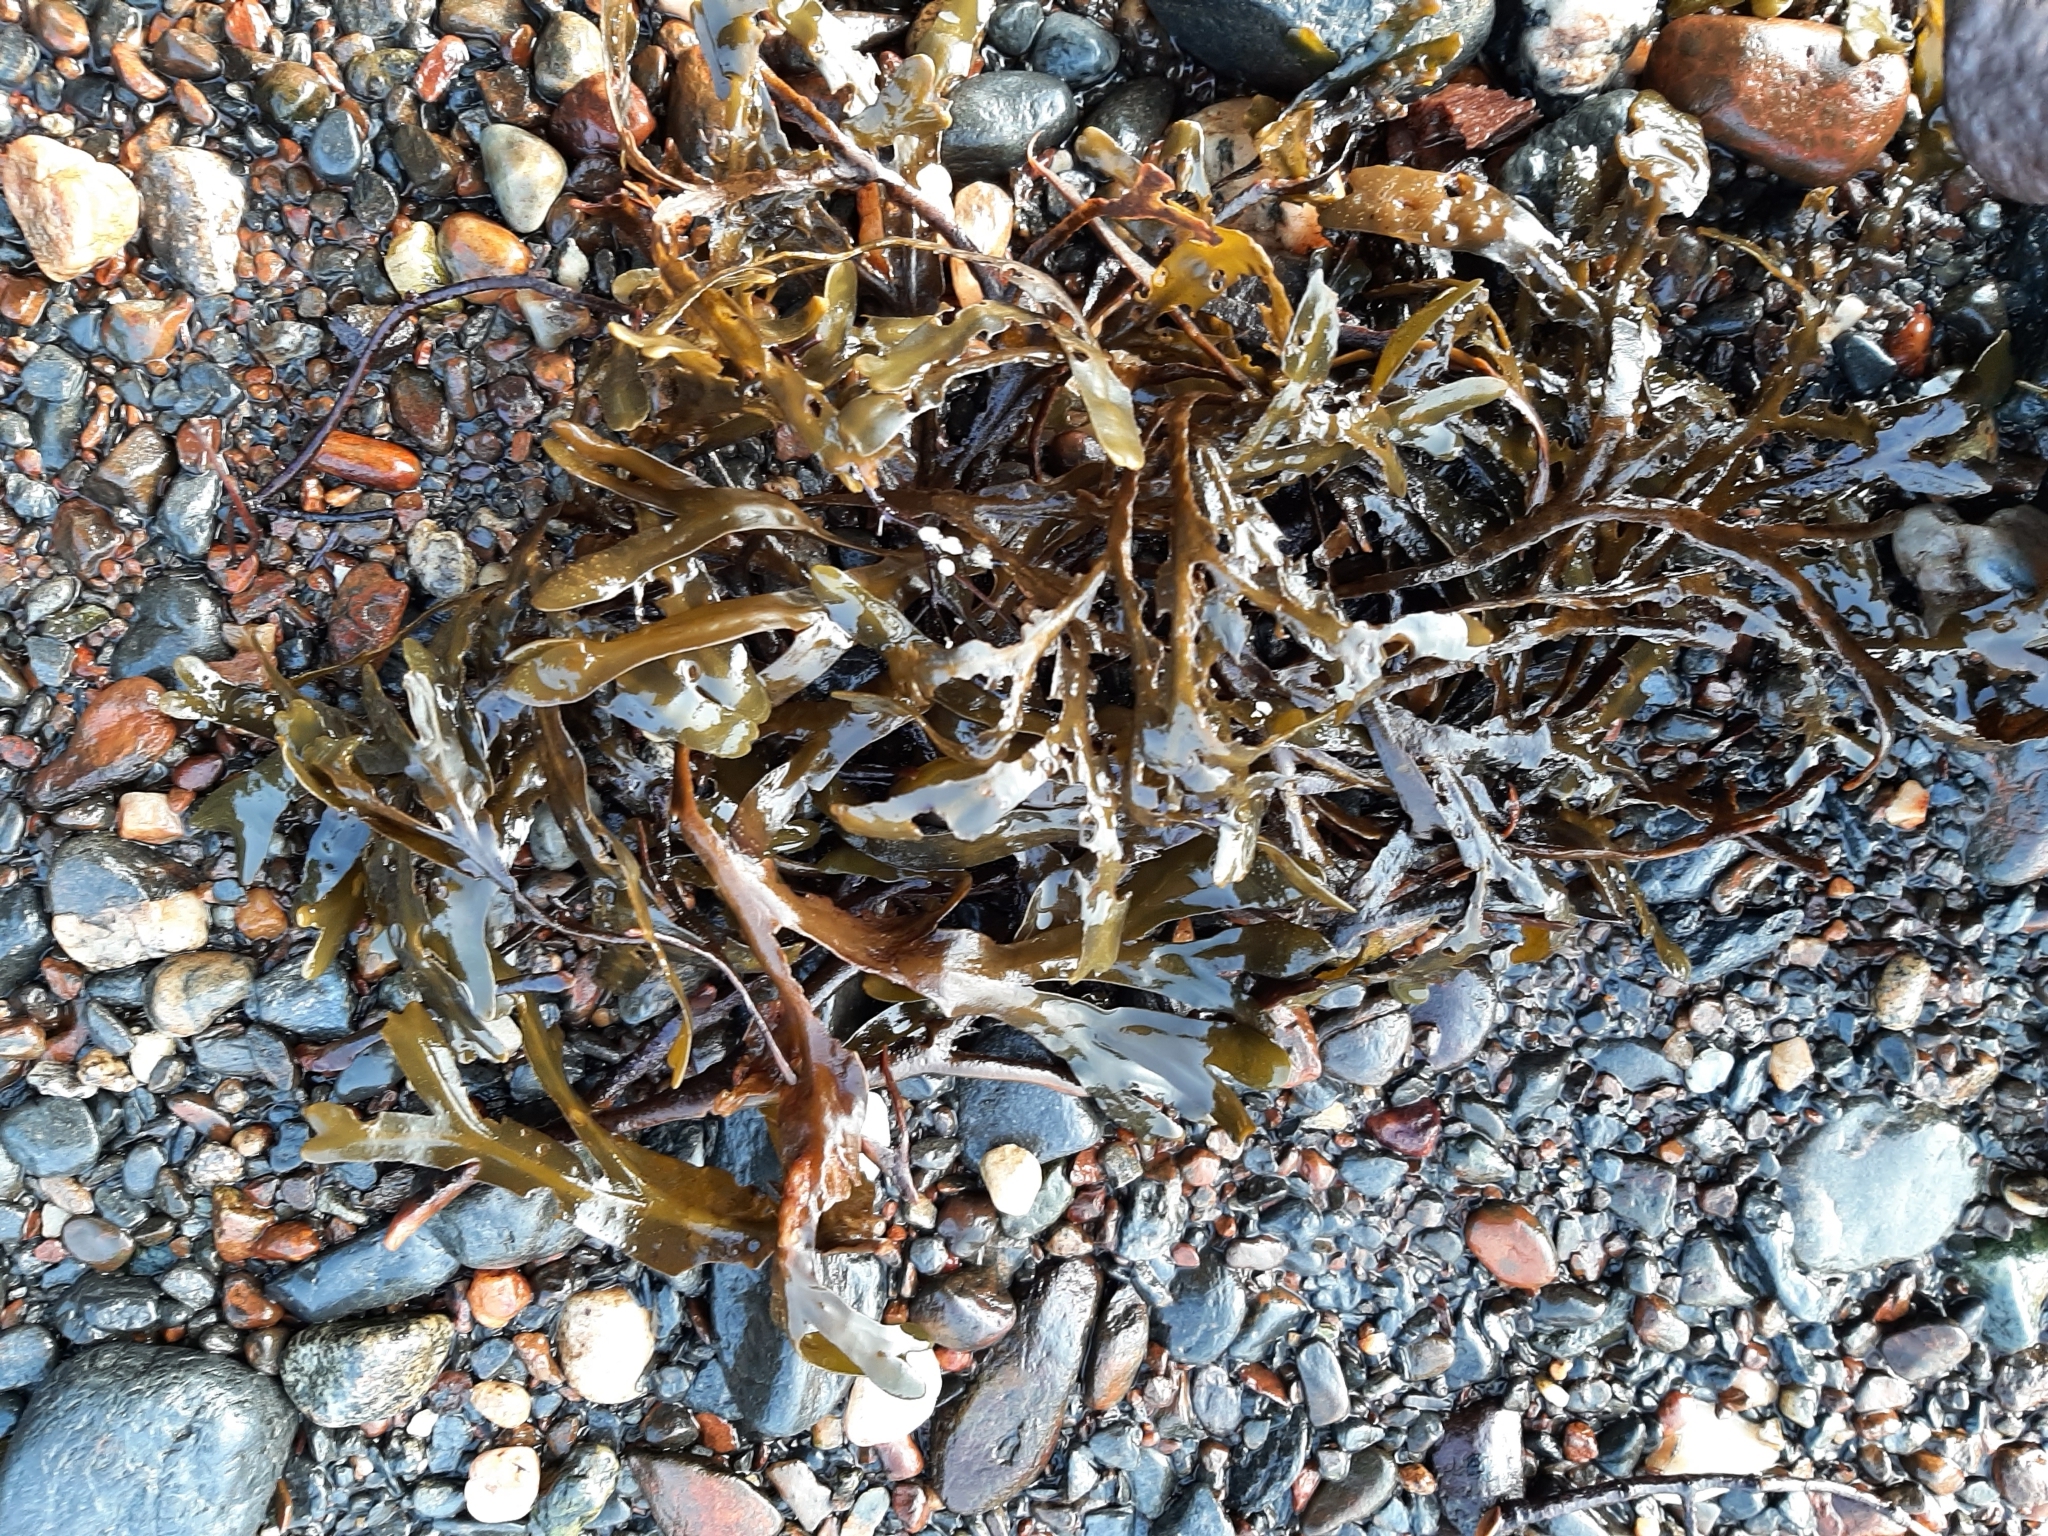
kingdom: Chromista
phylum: Ochrophyta
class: Phaeophyceae
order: Fucales
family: Fucaceae
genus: Fucus
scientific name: Fucus distichus
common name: Rockweed
